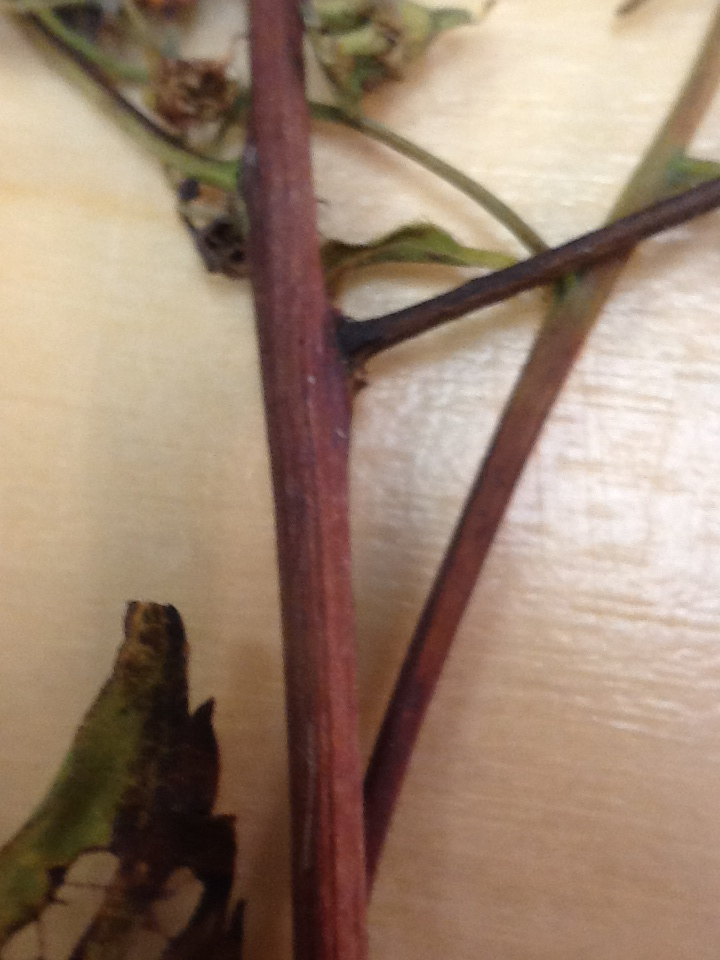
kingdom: Plantae
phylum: Tracheophyta
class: Magnoliopsida
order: Rosales
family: Rosaceae
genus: Spiraea
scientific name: Spiraea alba
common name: Pale bridewort
